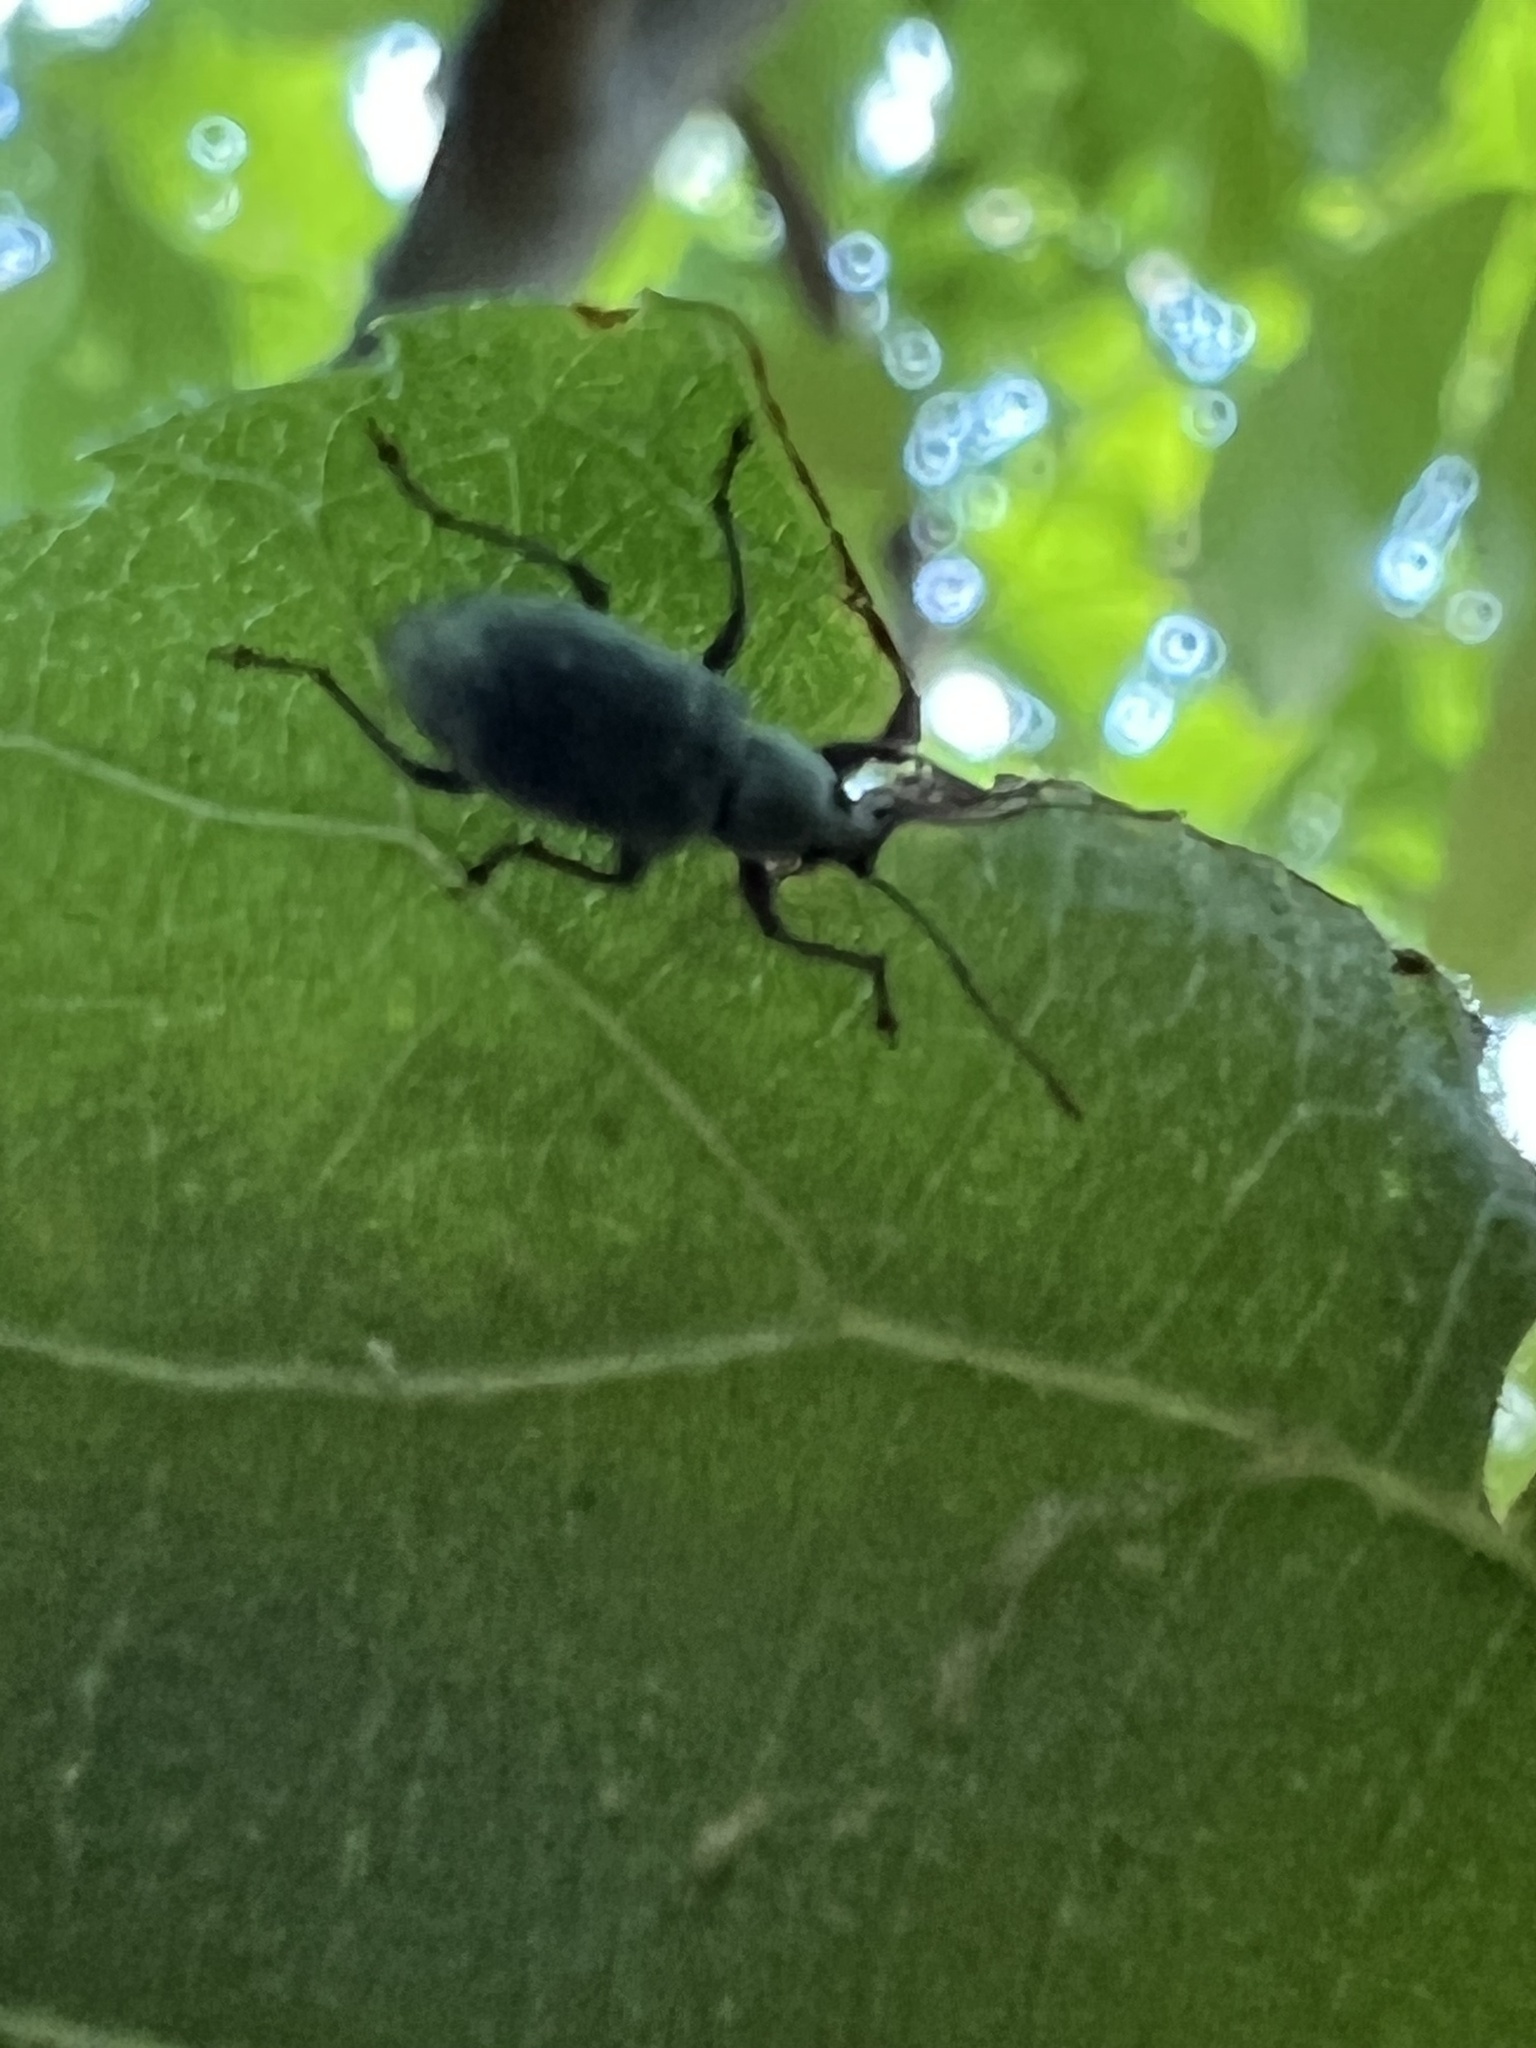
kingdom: Animalia
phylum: Arthropoda
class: Insecta
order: Coleoptera
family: Curculionidae
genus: Cyrtepistomus
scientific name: Cyrtepistomus castaneus
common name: Weevil
